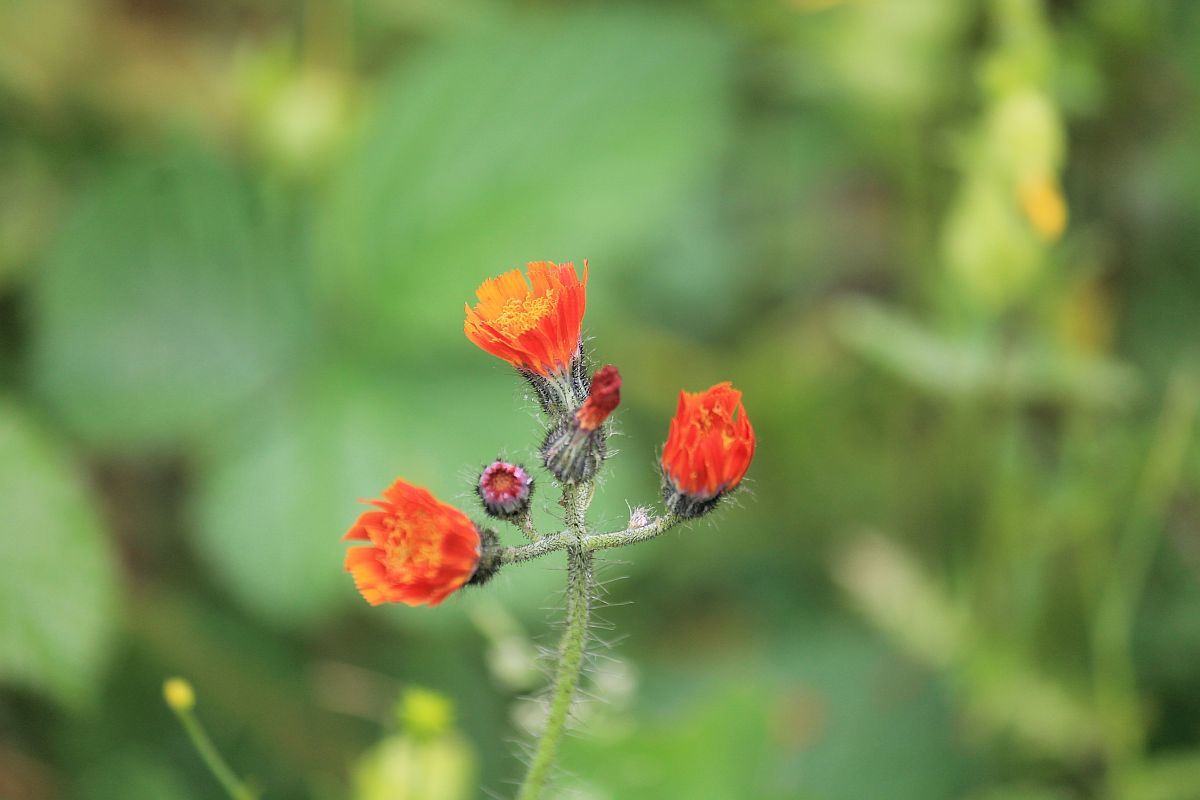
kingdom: Plantae
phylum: Tracheophyta
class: Magnoliopsida
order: Asterales
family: Asteraceae
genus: Pilosella
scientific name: Pilosella aurantiaca
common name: Fox-and-cubs
